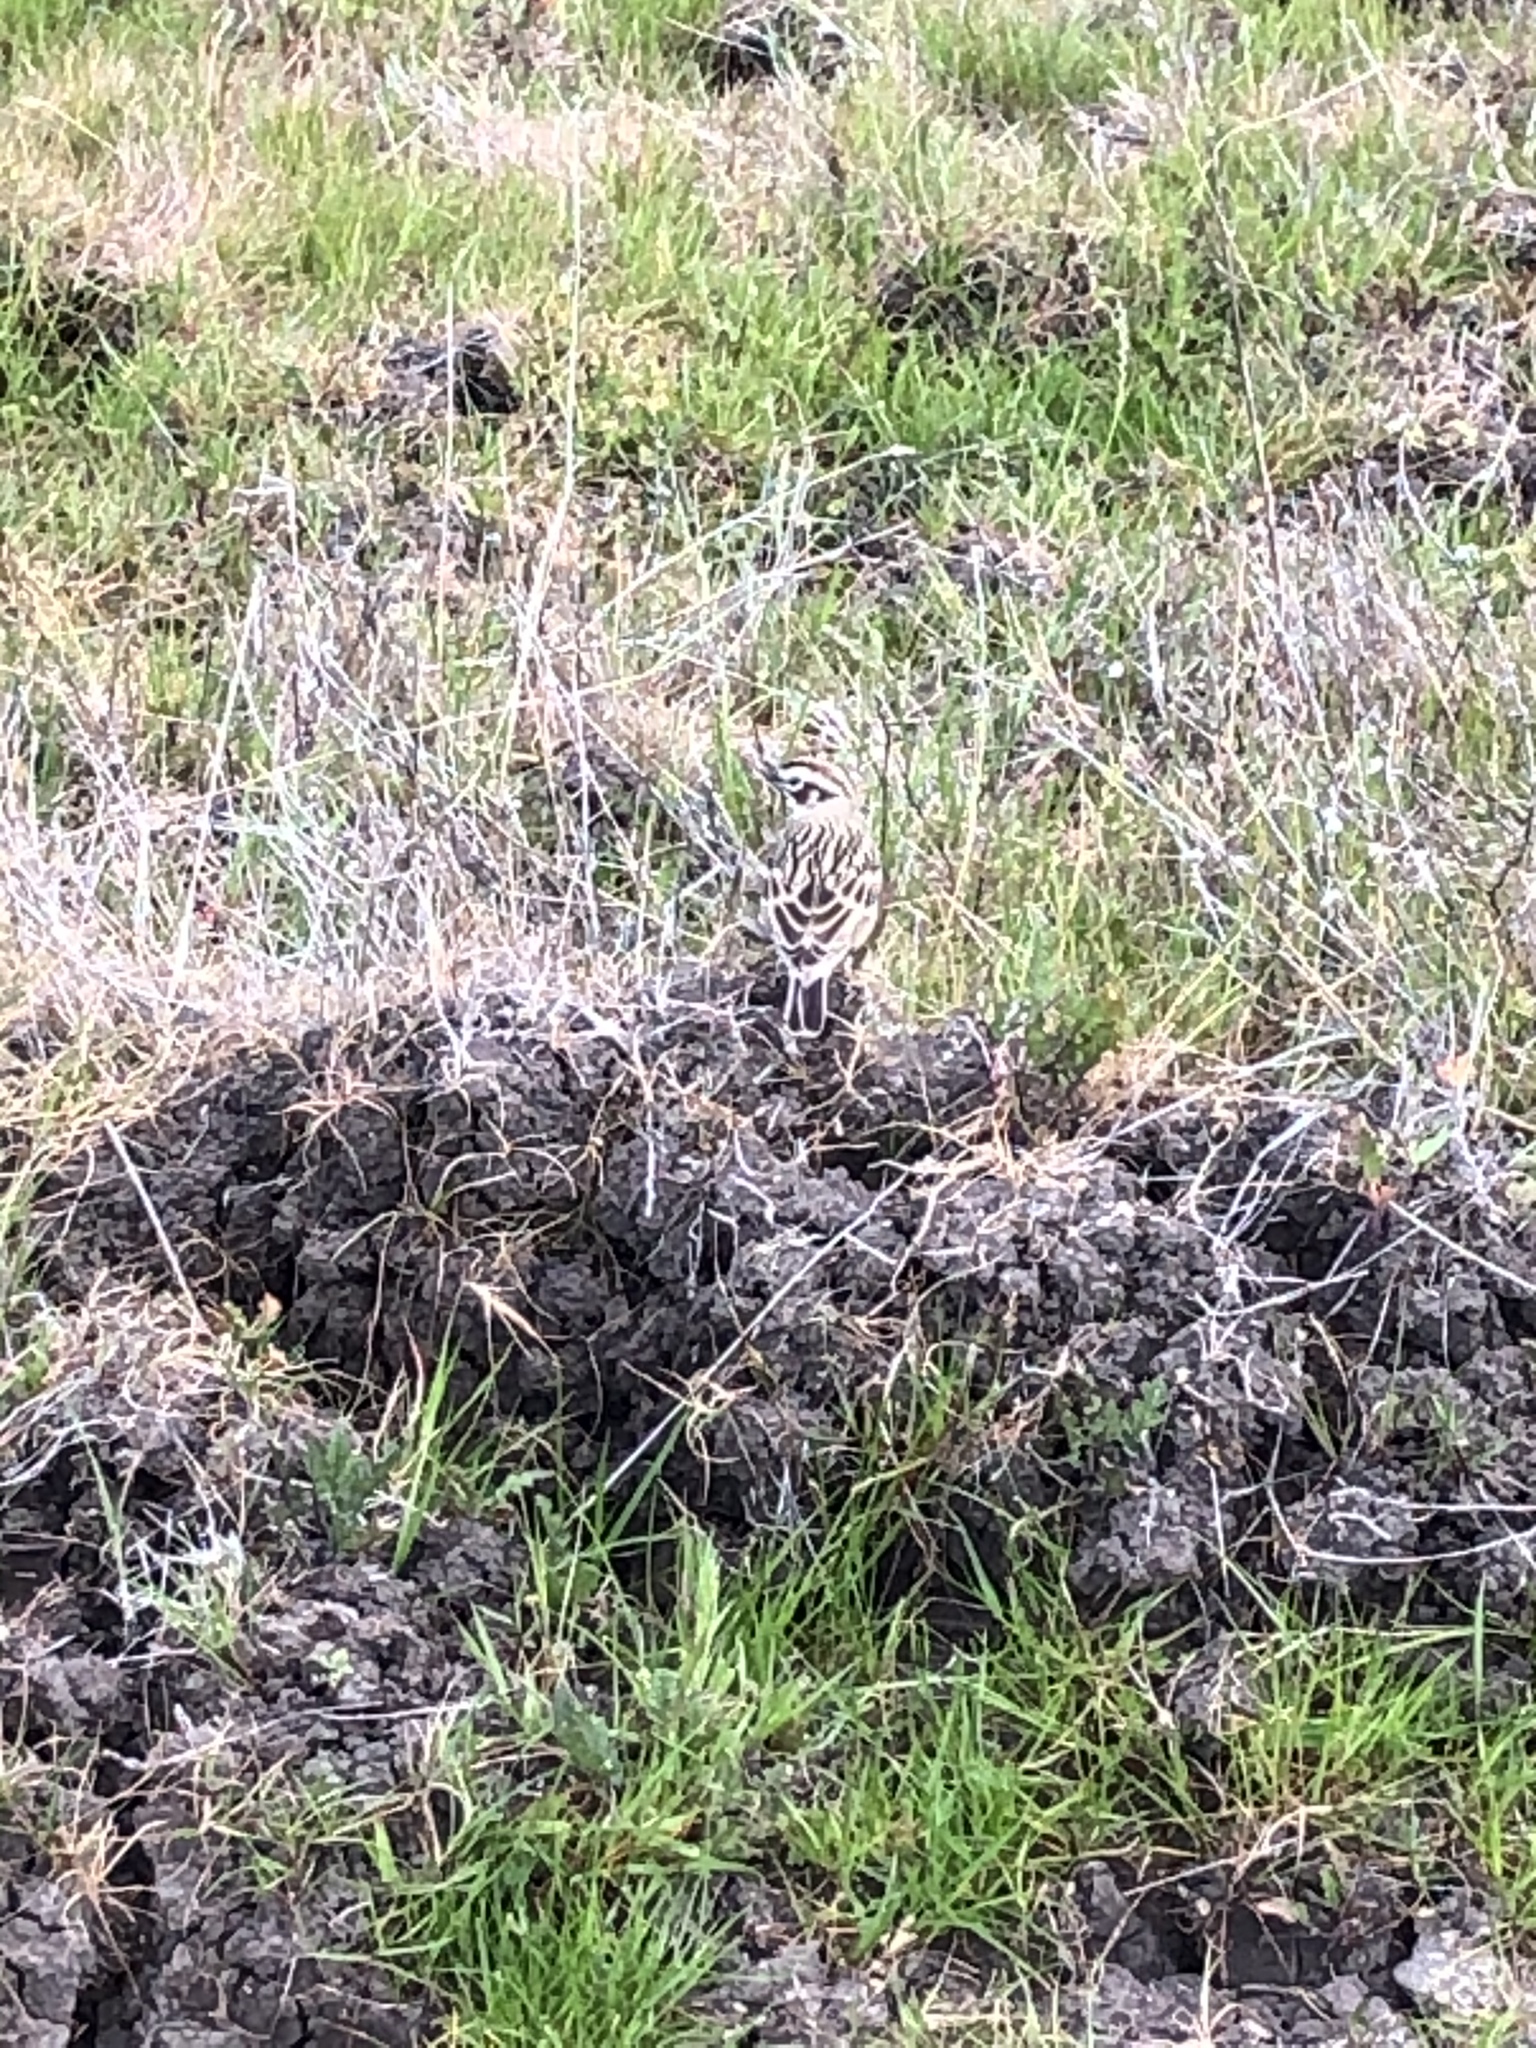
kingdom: Animalia
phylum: Chordata
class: Aves
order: Passeriformes
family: Passerellidae
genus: Chondestes
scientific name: Chondestes grammacus
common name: Lark sparrow
